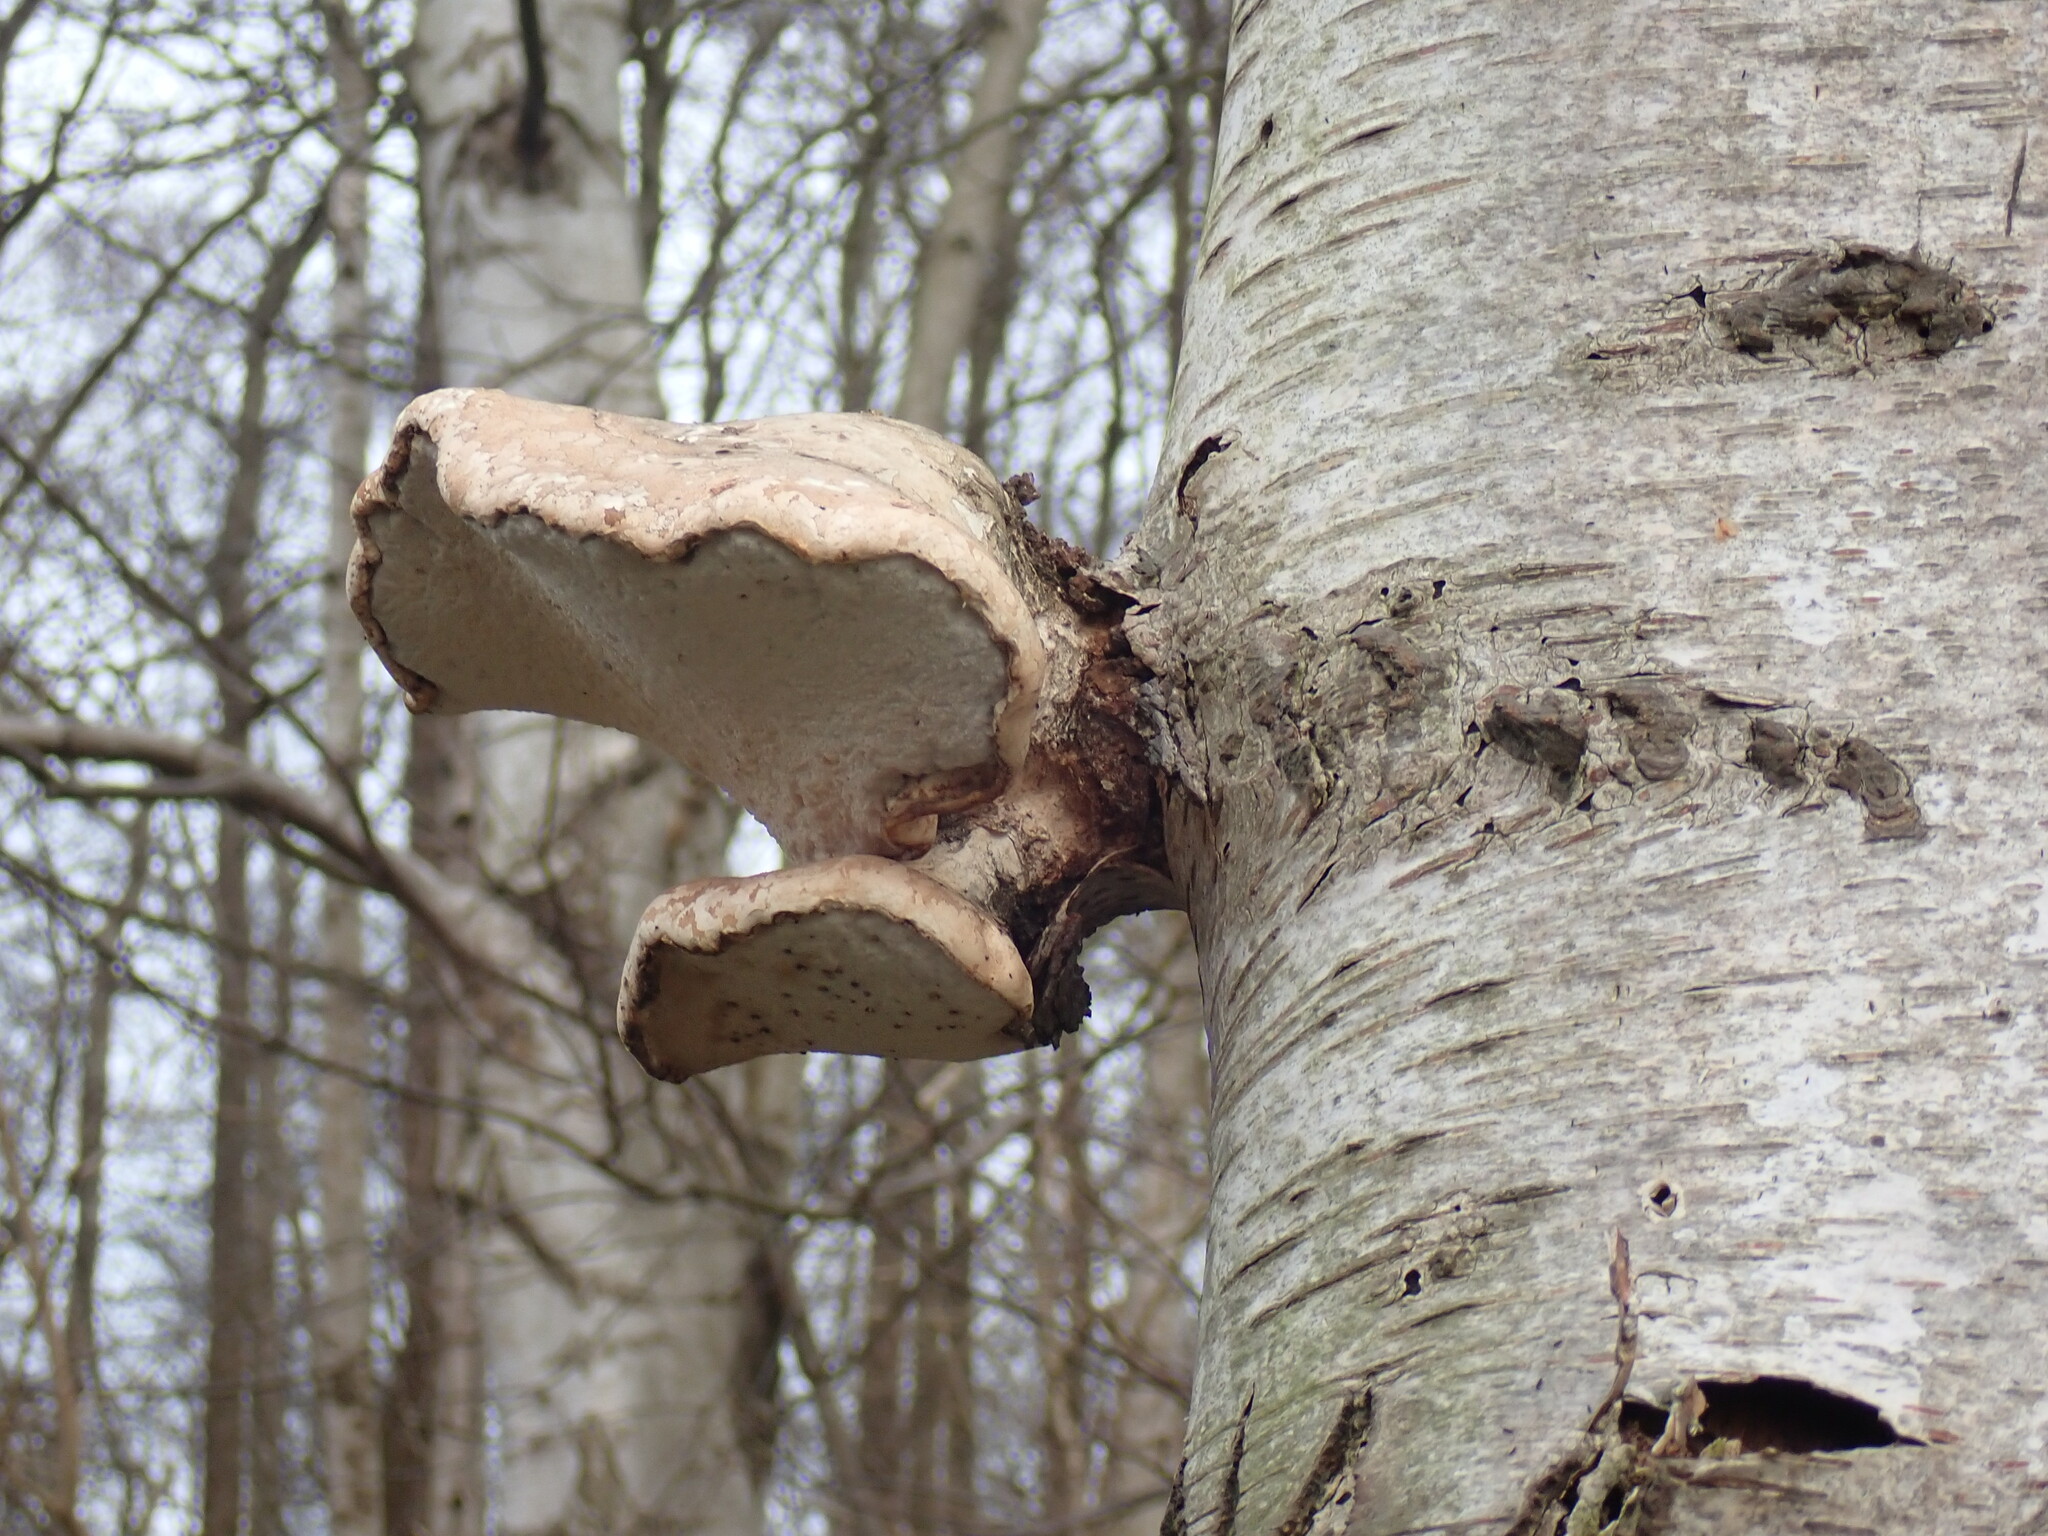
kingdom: Fungi
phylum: Basidiomycota
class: Agaricomycetes
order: Polyporales
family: Fomitopsidaceae
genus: Fomitopsis
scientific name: Fomitopsis betulina
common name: Birch polypore
